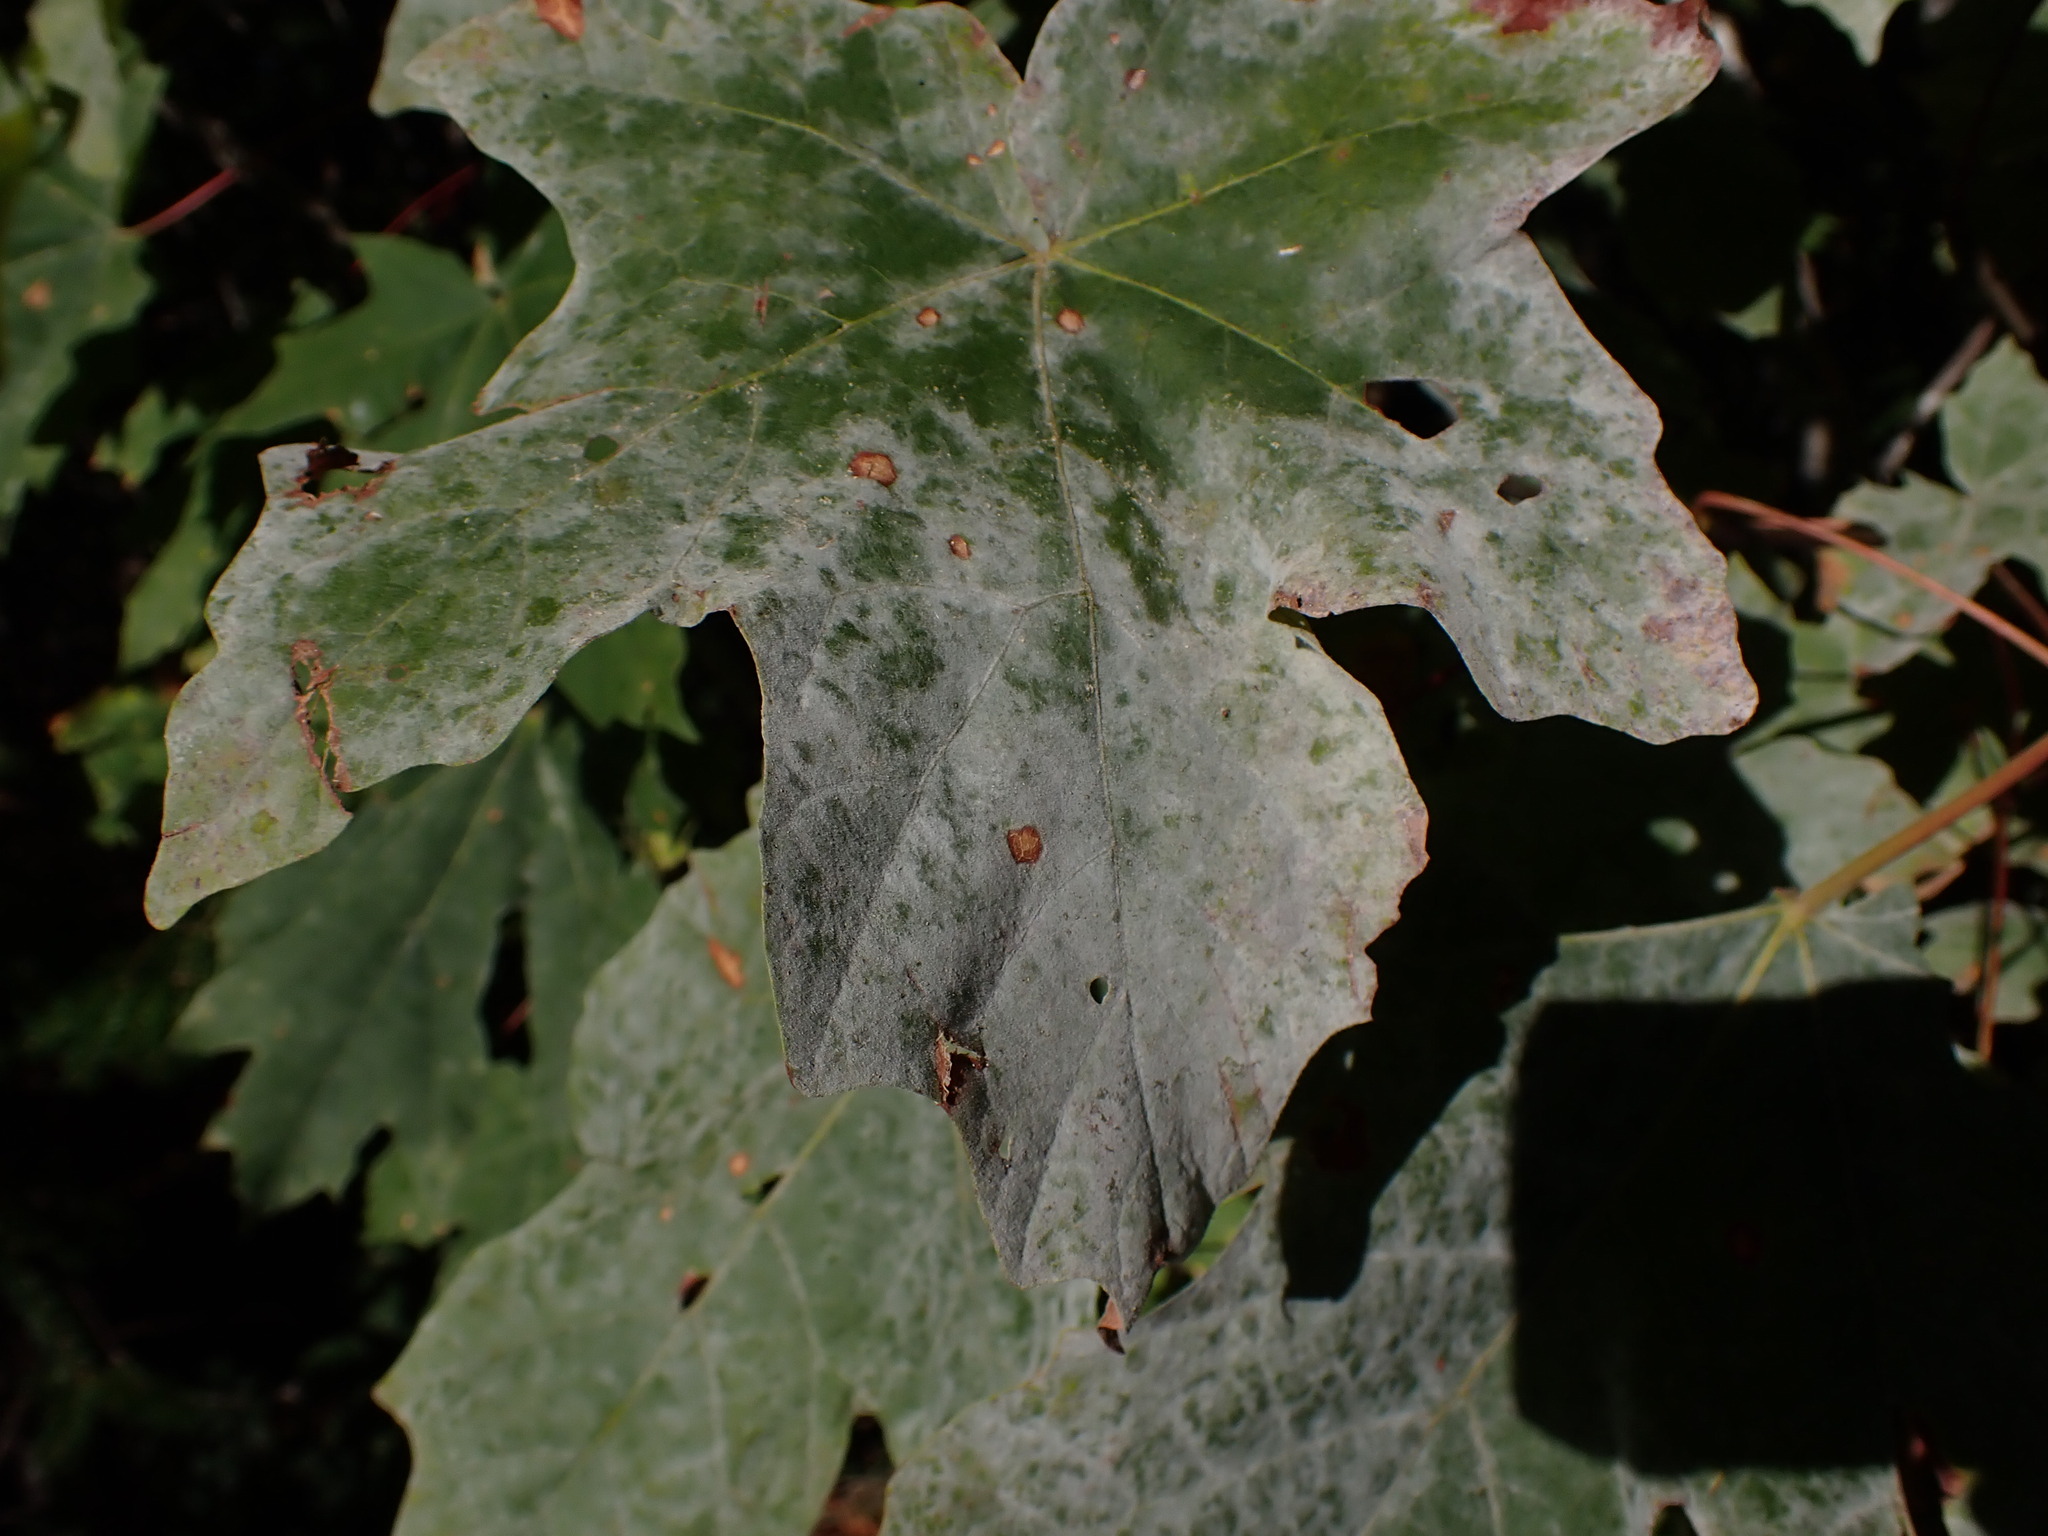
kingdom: Fungi
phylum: Ascomycota
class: Leotiomycetes
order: Helotiales
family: Erysiphaceae
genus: Sawadaea
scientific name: Sawadaea bicornis
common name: Maple mildew
